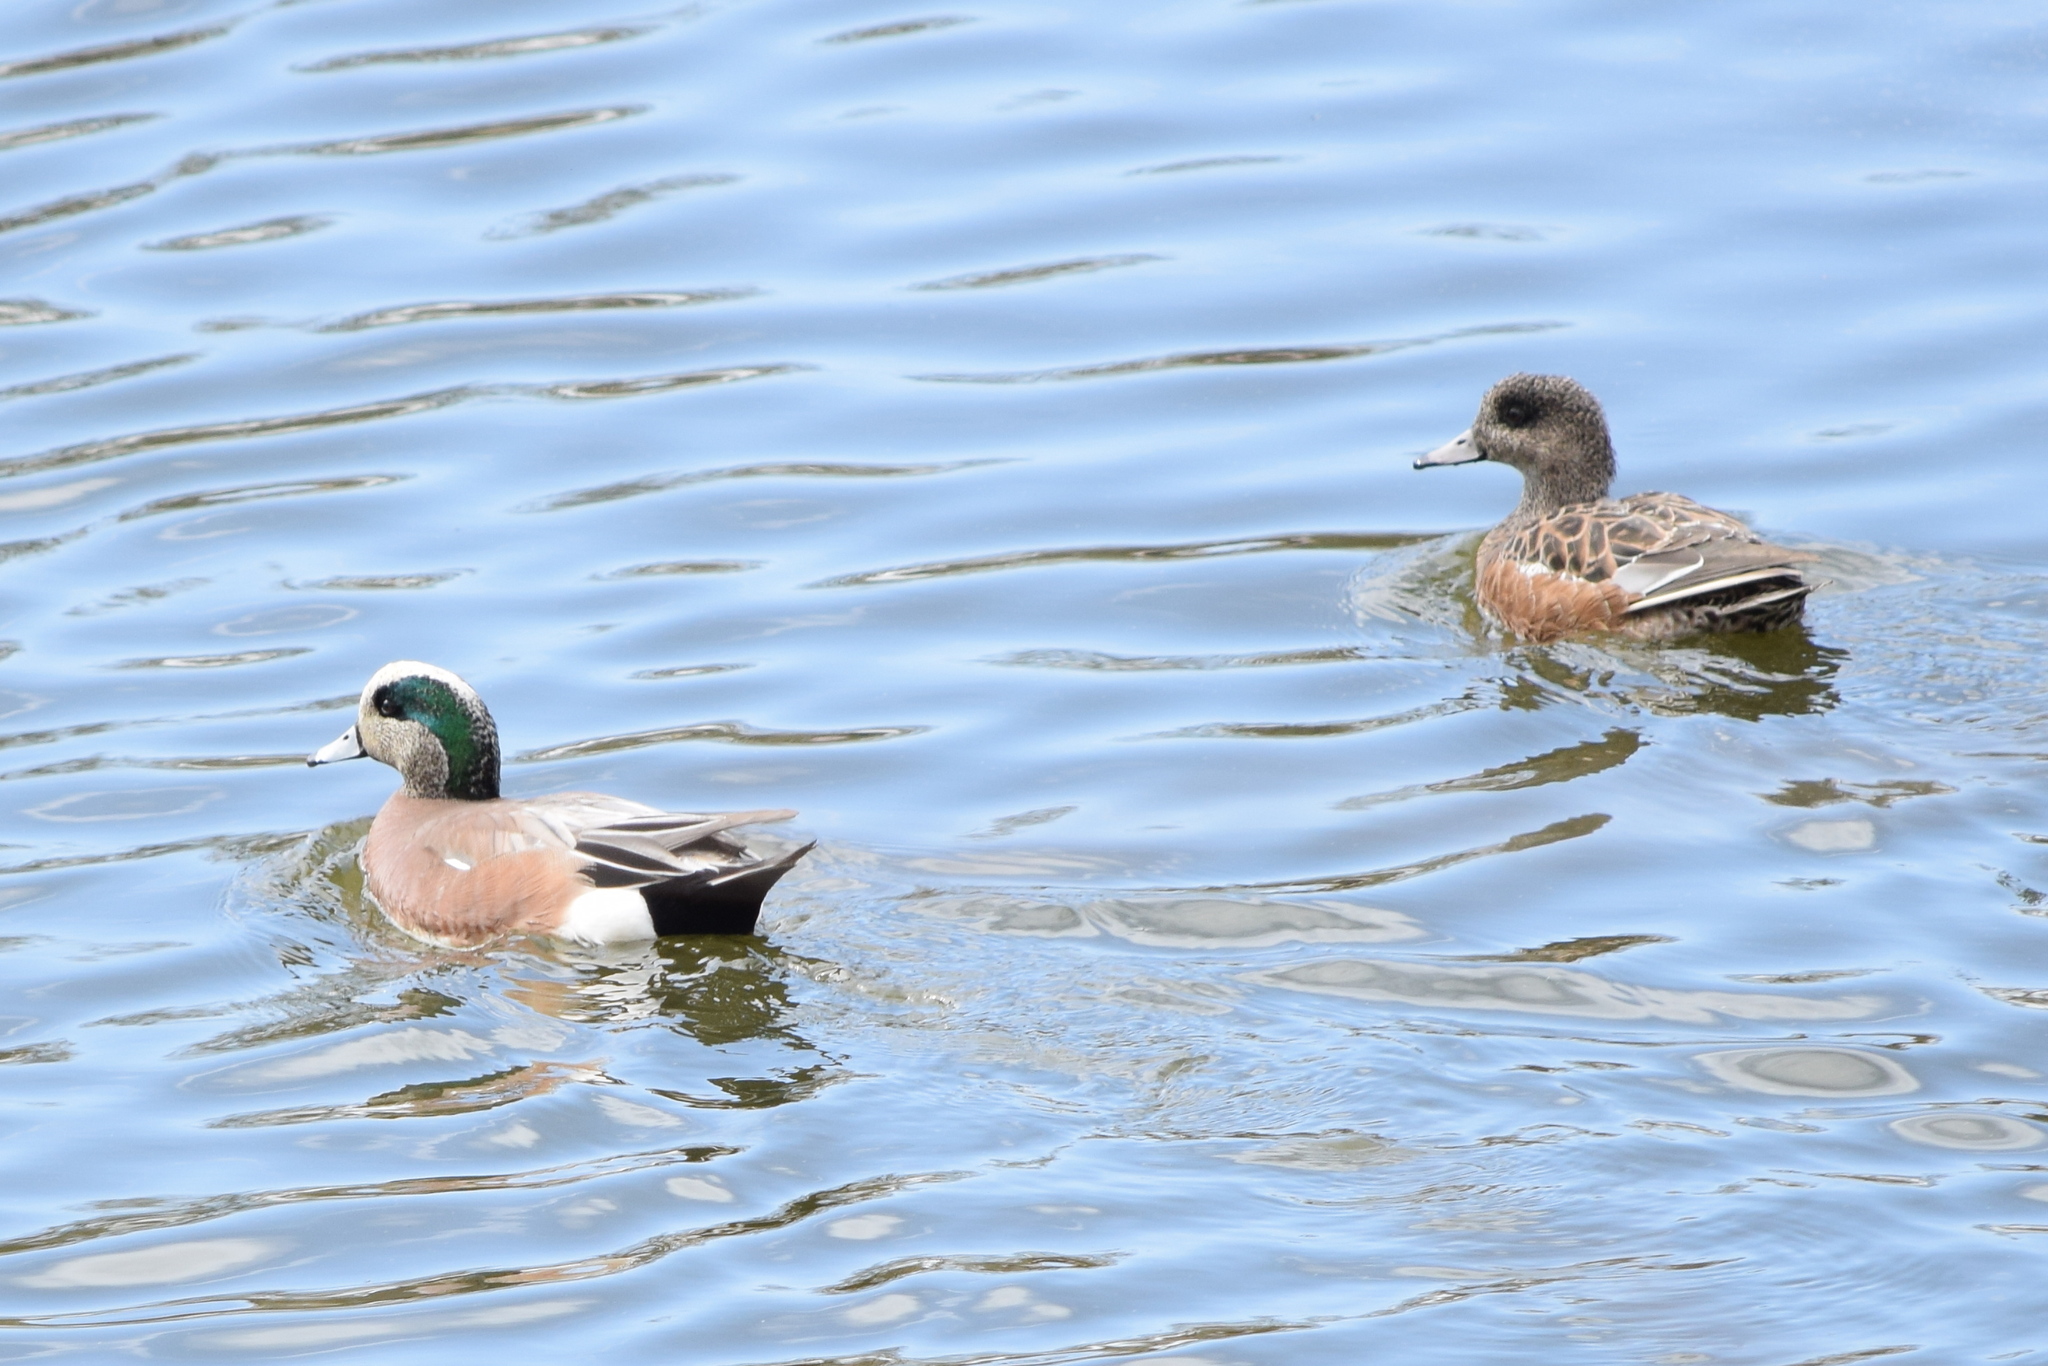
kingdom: Animalia
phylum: Chordata
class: Aves
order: Anseriformes
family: Anatidae
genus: Mareca
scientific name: Mareca americana
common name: American wigeon
